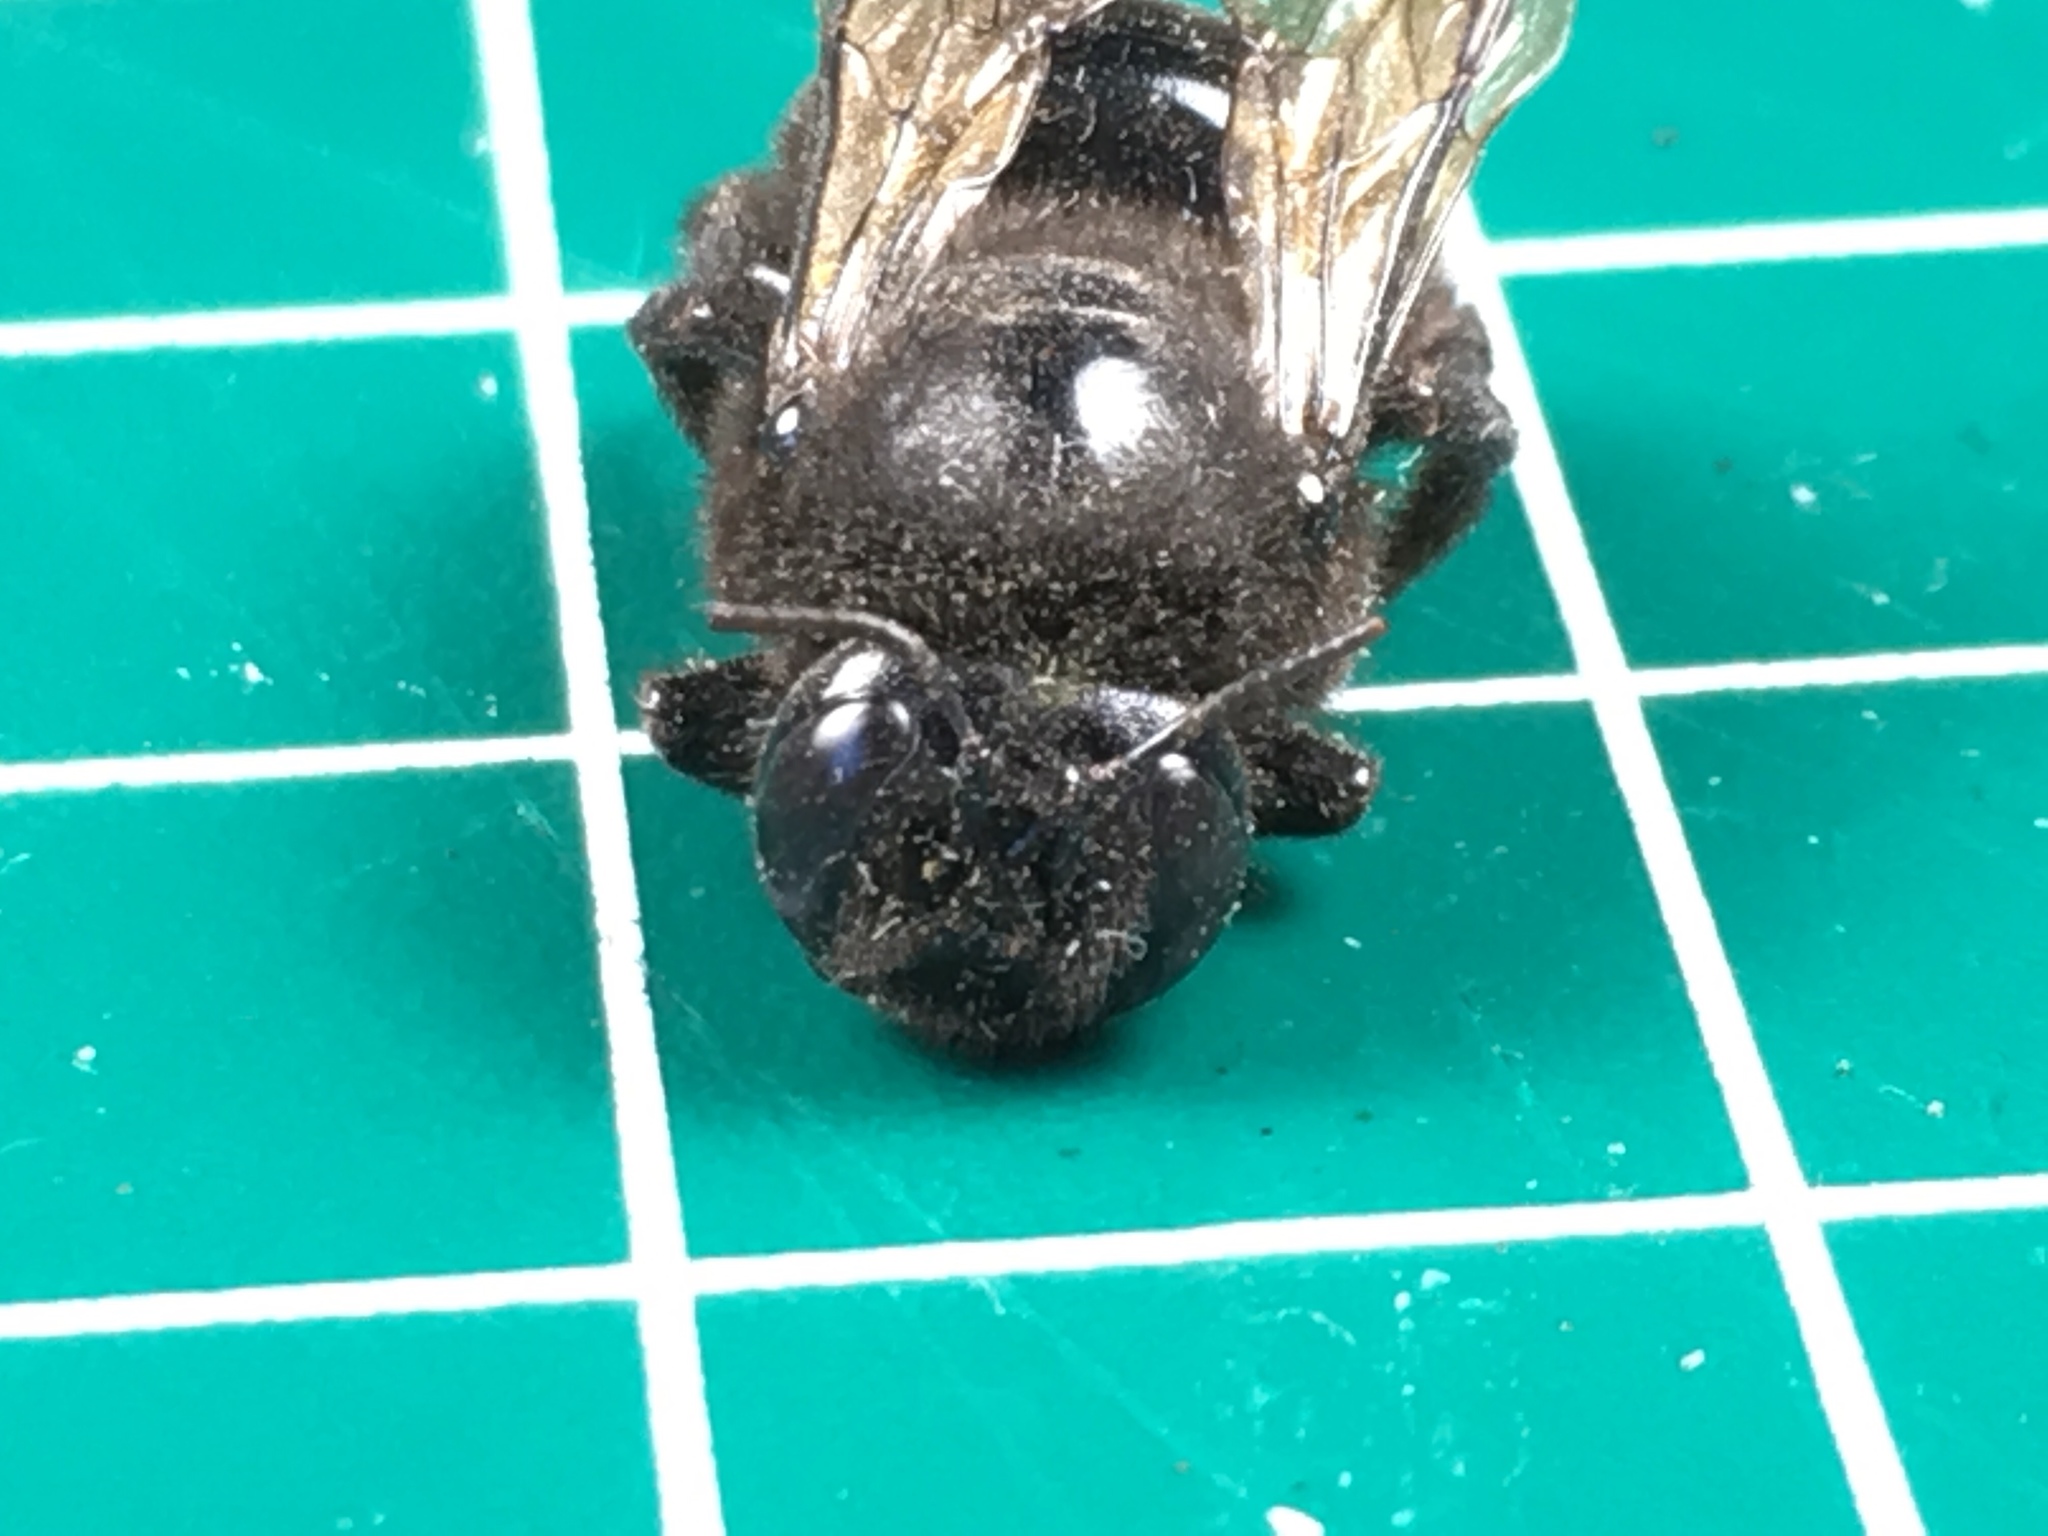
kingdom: Animalia
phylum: Arthropoda
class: Insecta
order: Hymenoptera
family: Apidae
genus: Xylocopa
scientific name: Xylocopa sonorina
